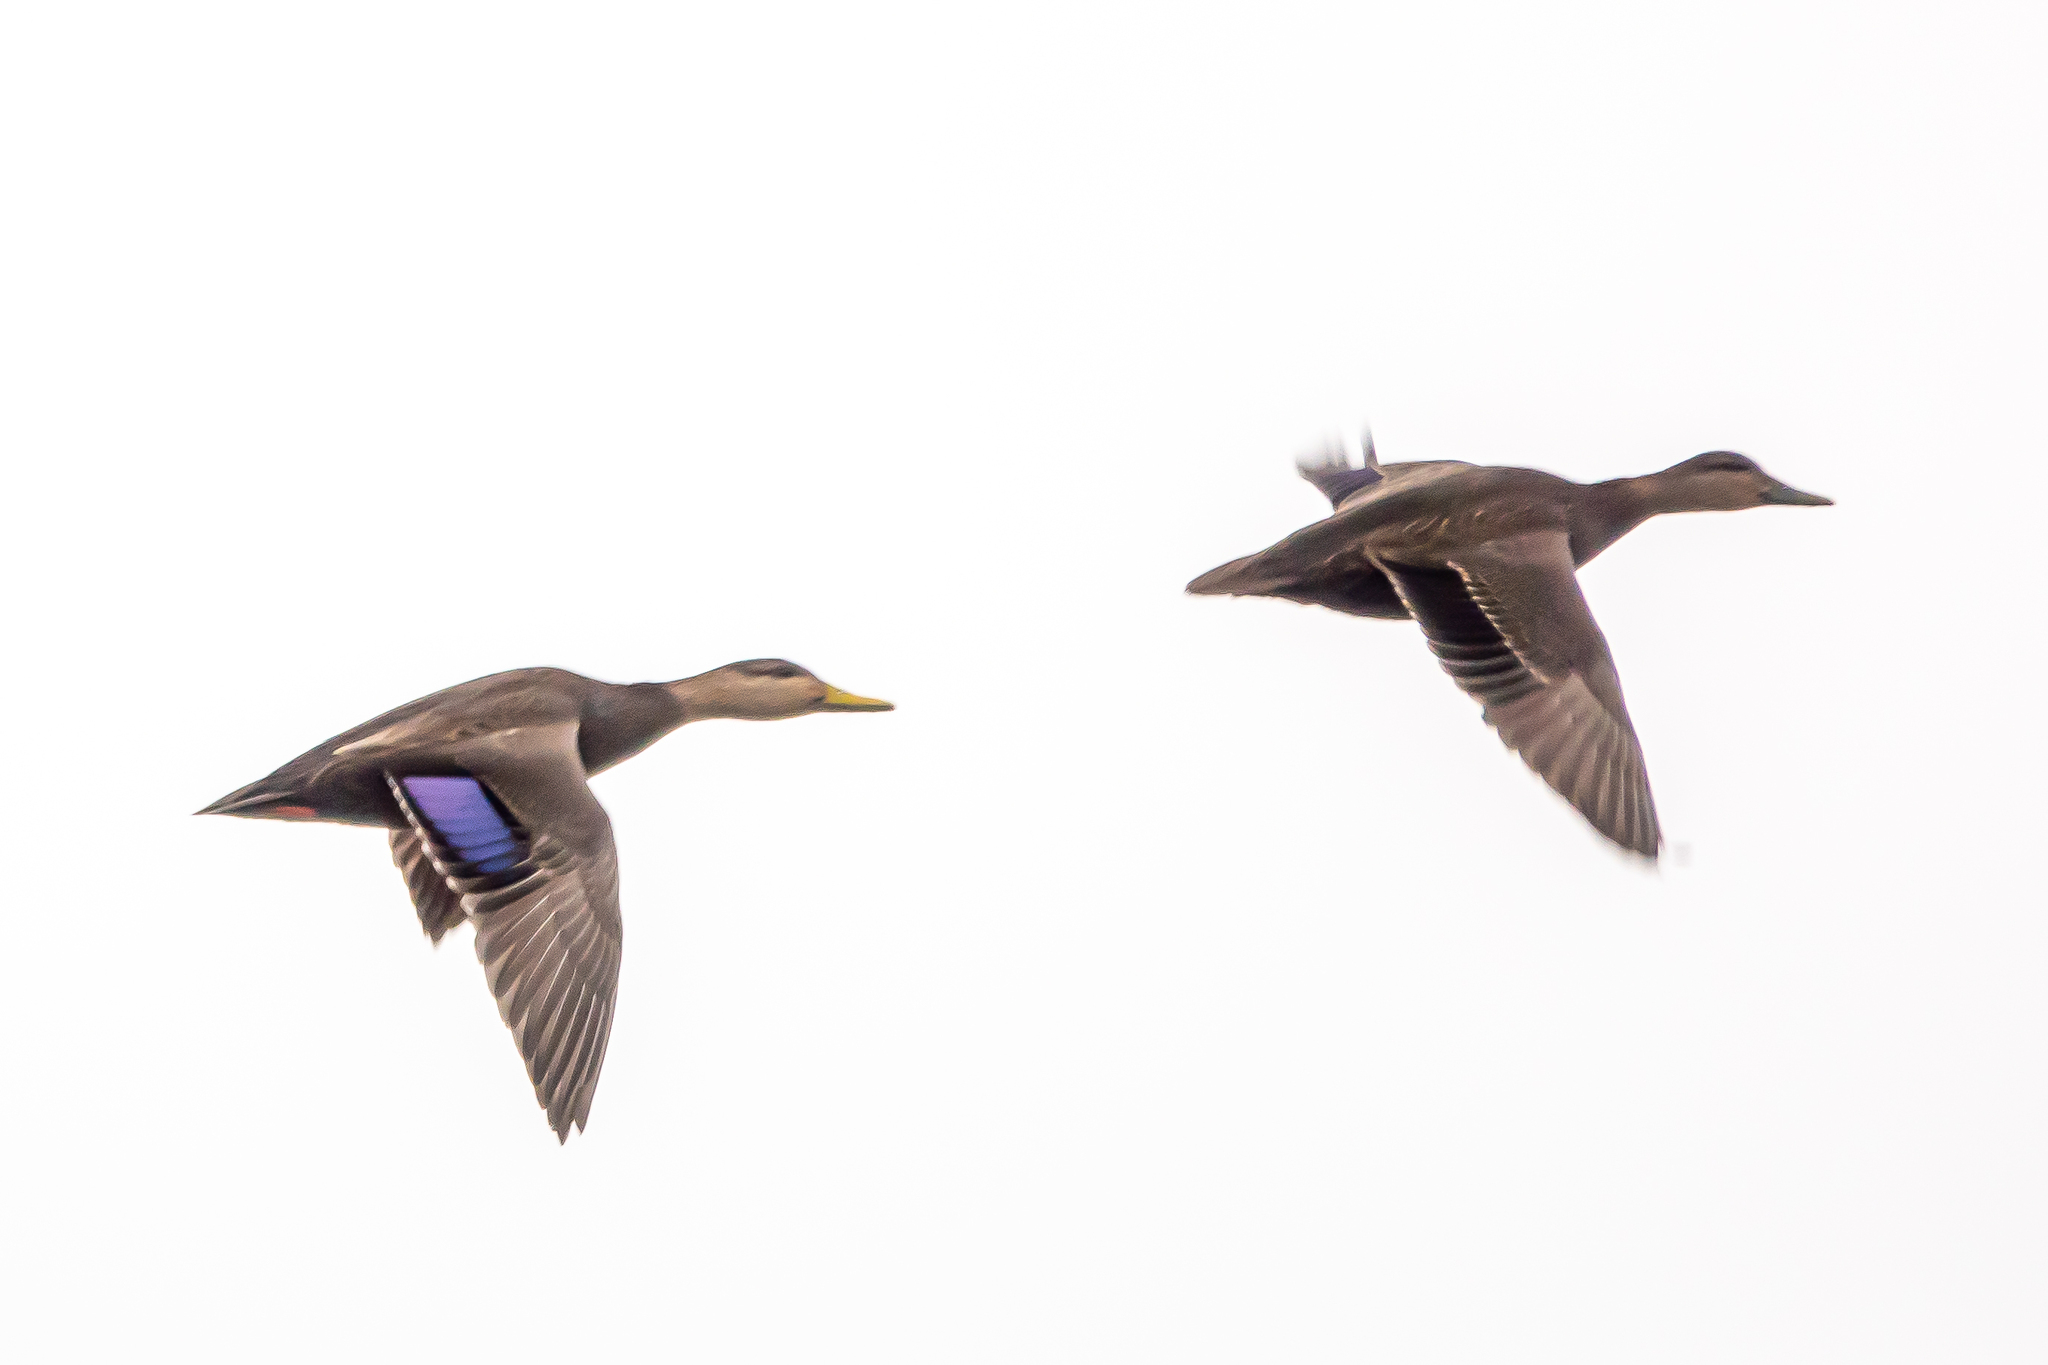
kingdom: Animalia
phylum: Chordata
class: Aves
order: Anseriformes
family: Anatidae
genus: Anas
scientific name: Anas rubripes
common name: American black duck
